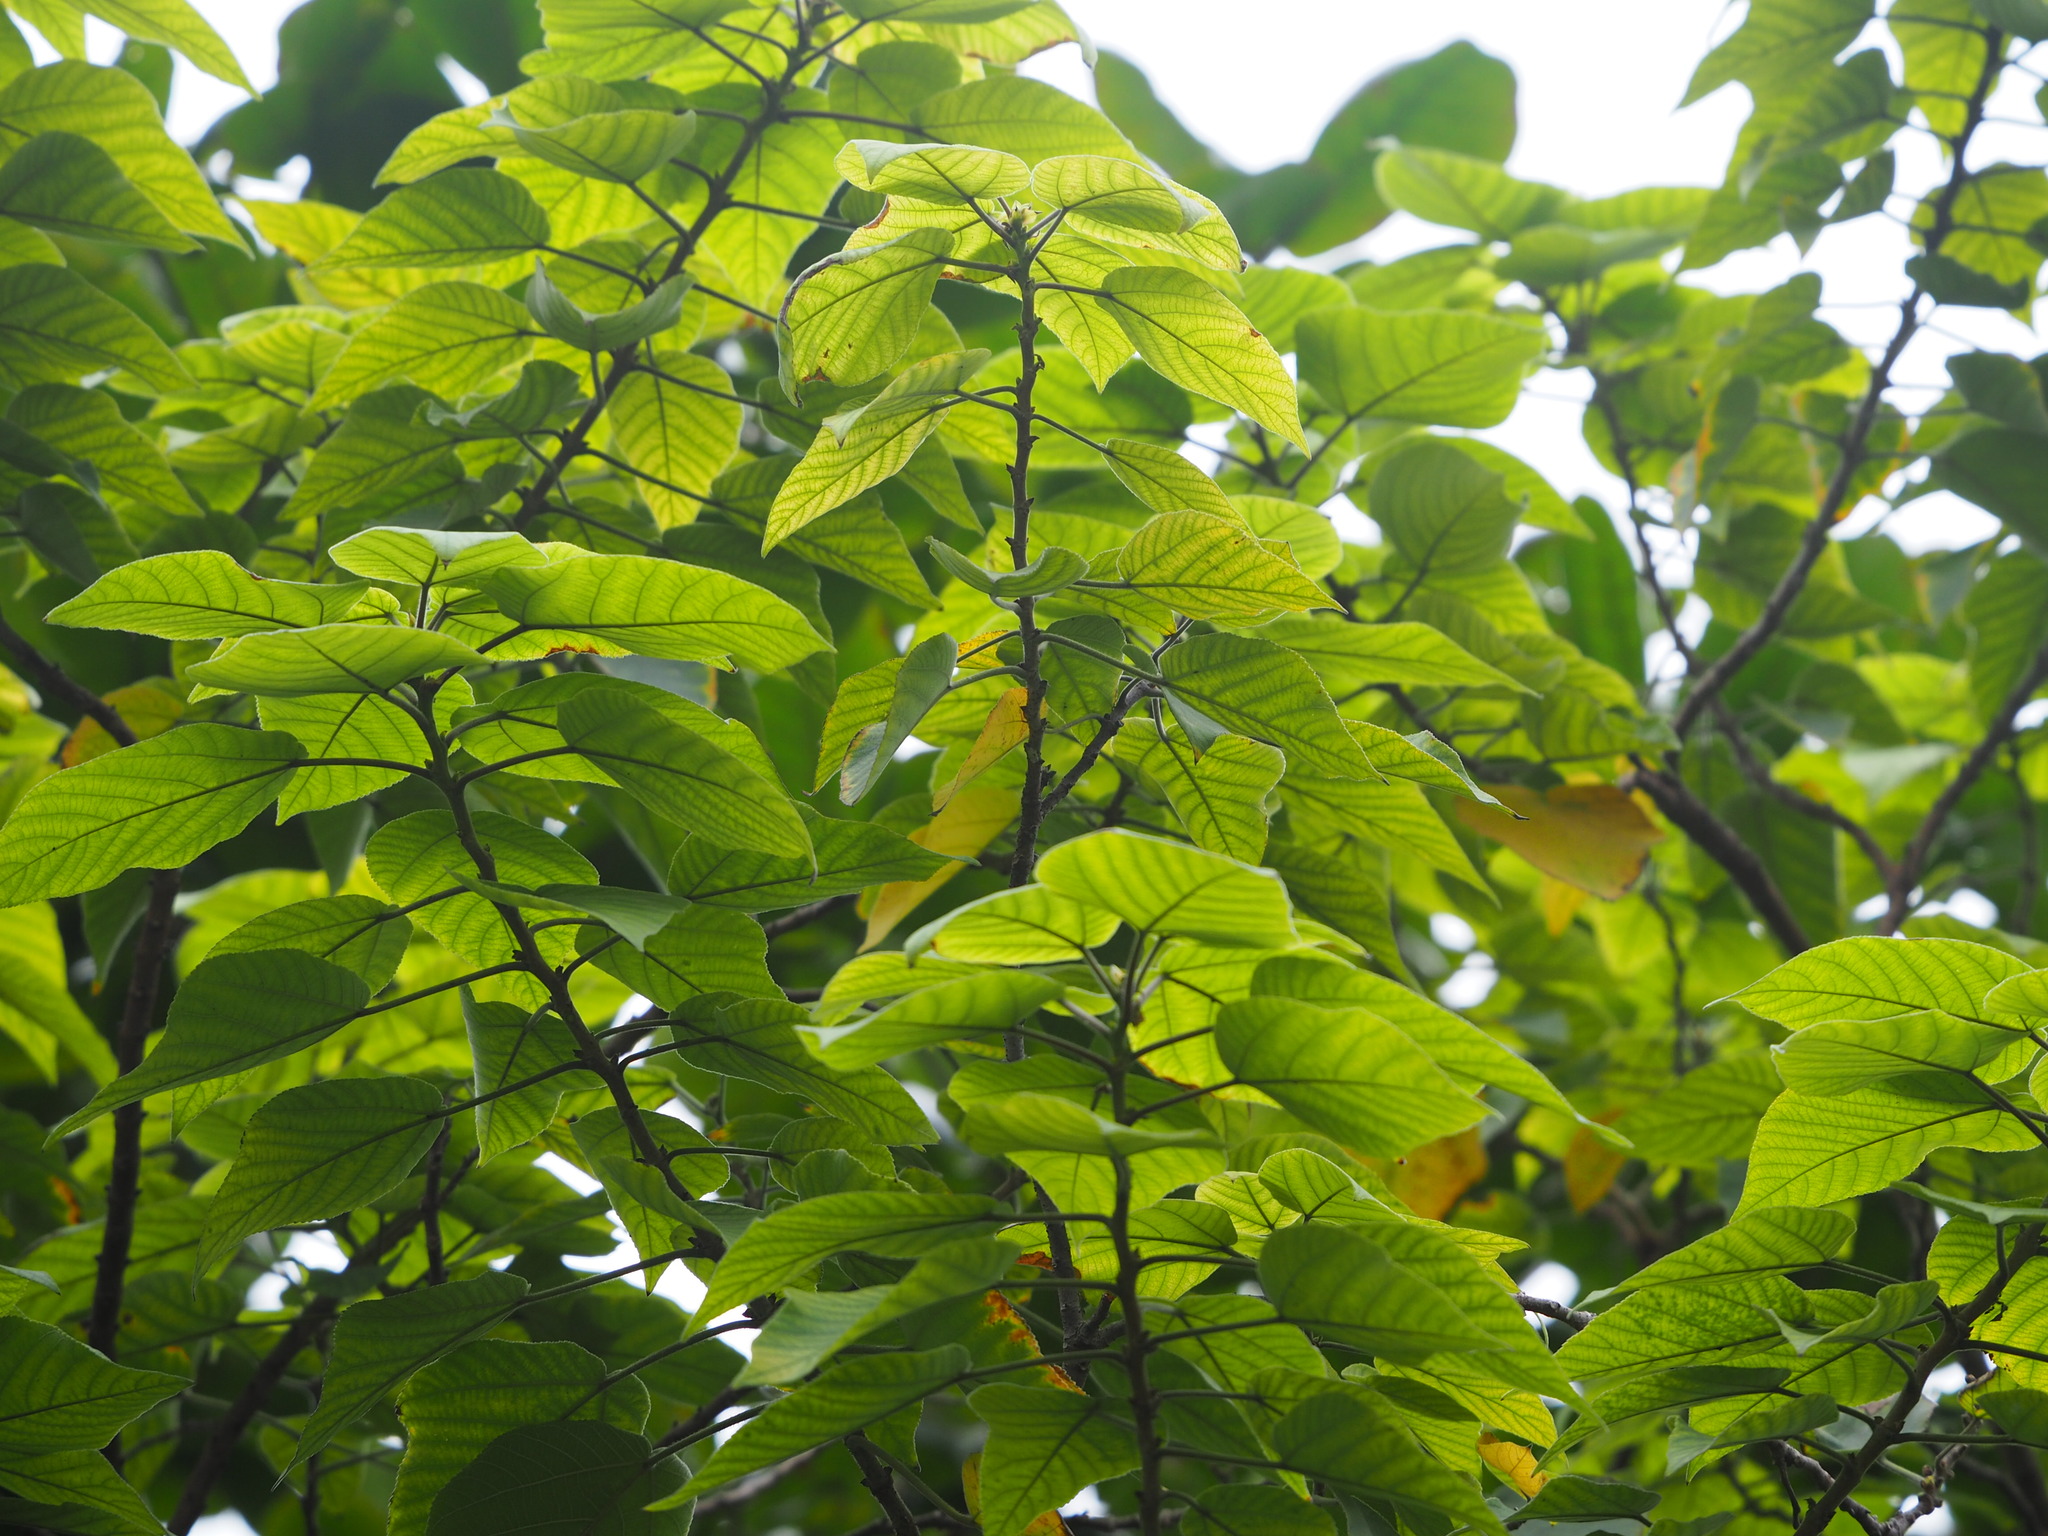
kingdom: Plantae
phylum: Tracheophyta
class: Magnoliopsida
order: Rosales
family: Moraceae
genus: Broussonetia
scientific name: Broussonetia papyrifera
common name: Paper mulberry
